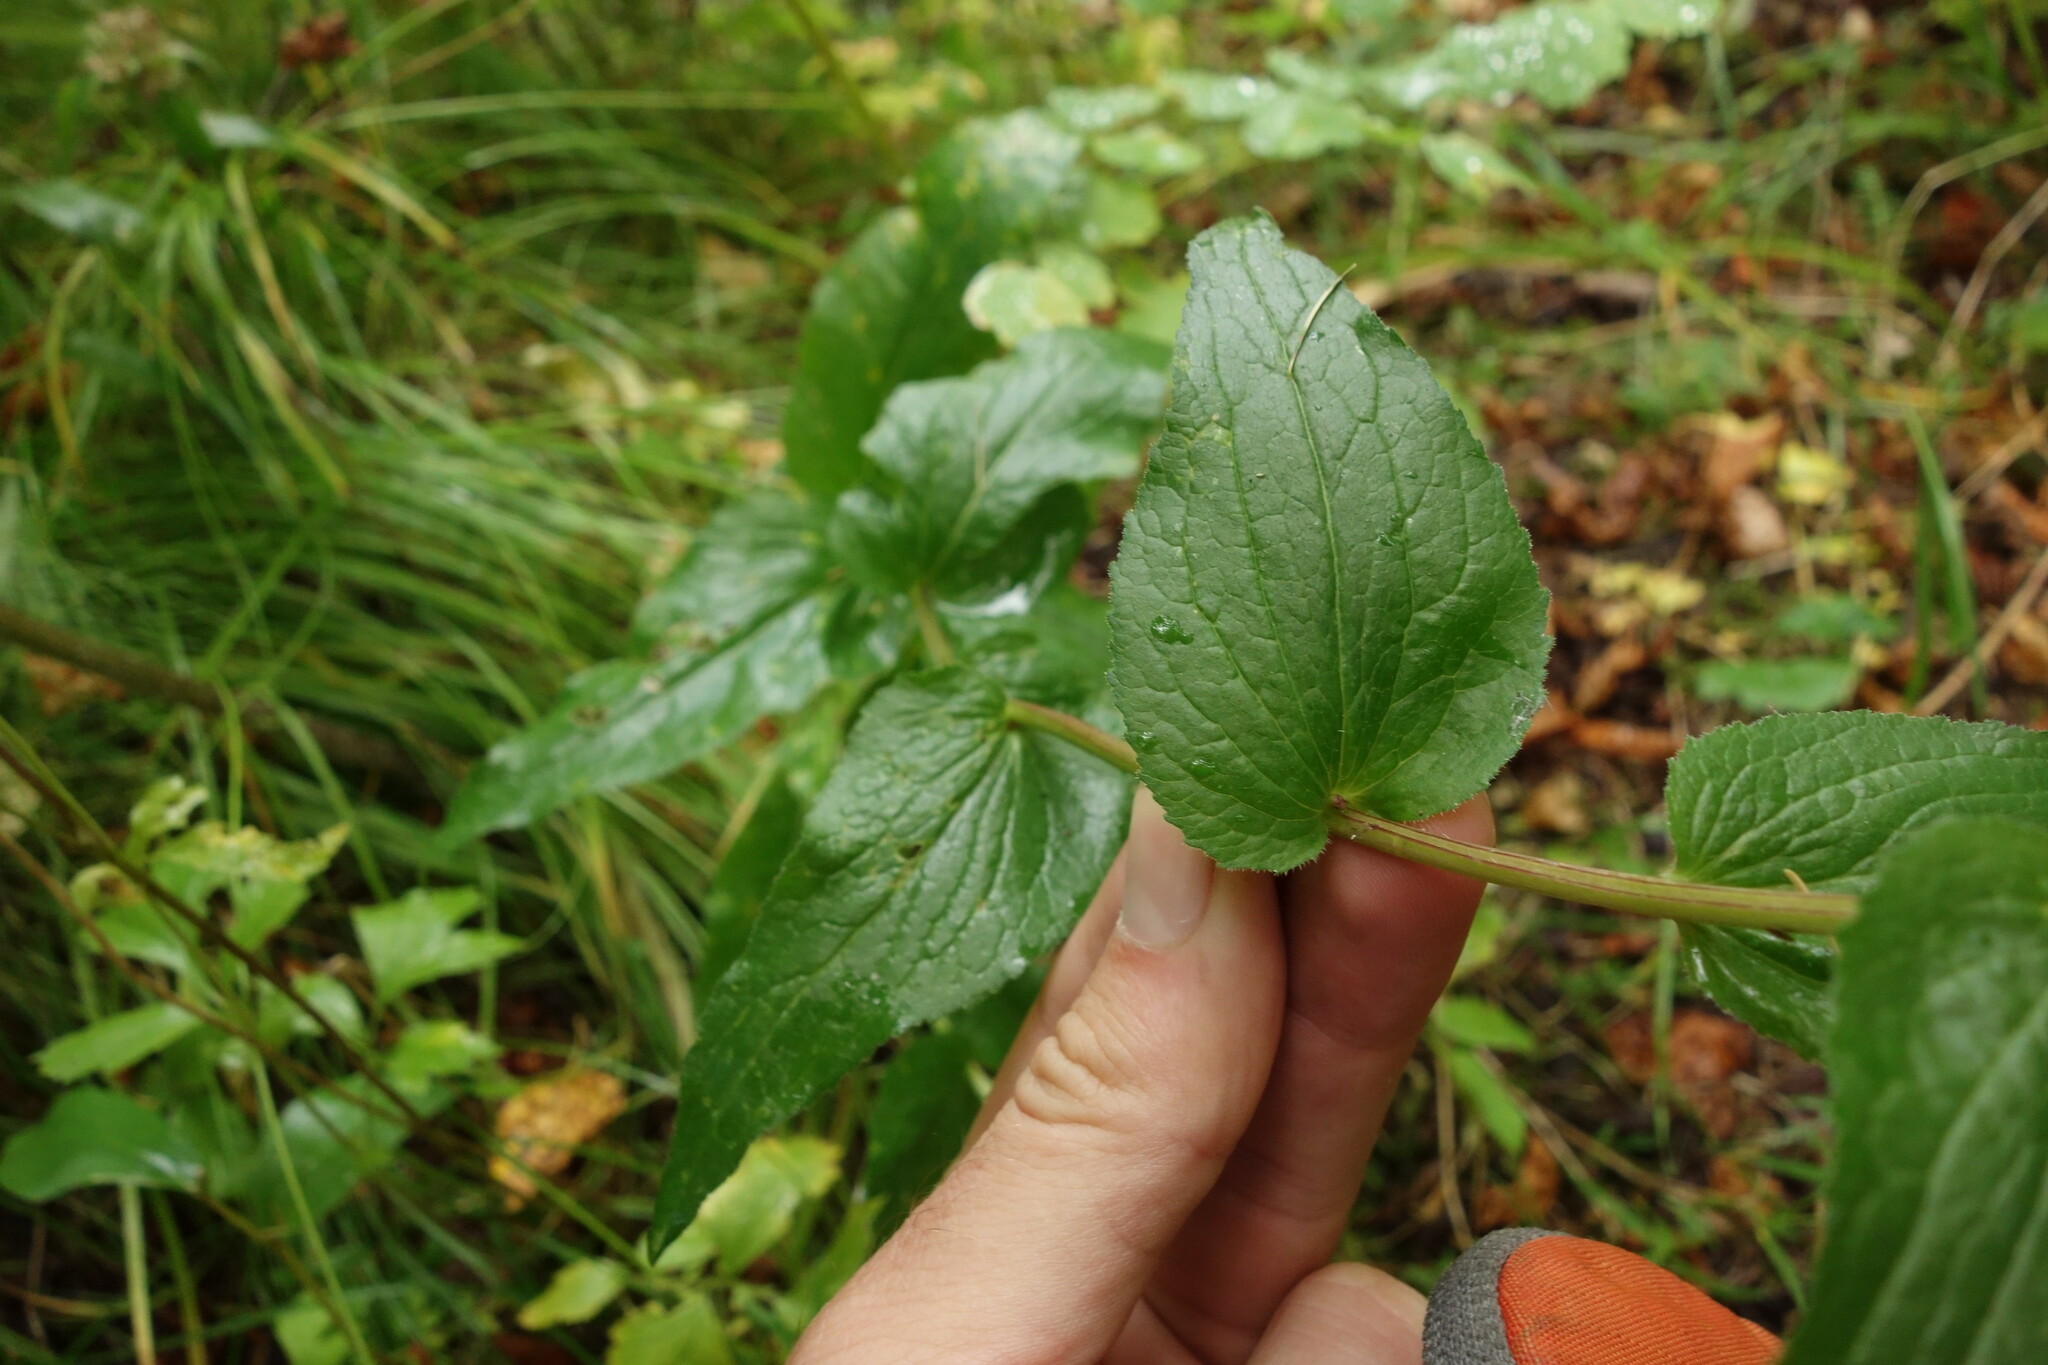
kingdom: Plantae
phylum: Tracheophyta
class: Magnoliopsida
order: Asterales
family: Campanulaceae
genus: Campanula
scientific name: Campanula glomerata
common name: Clustered bellflower
